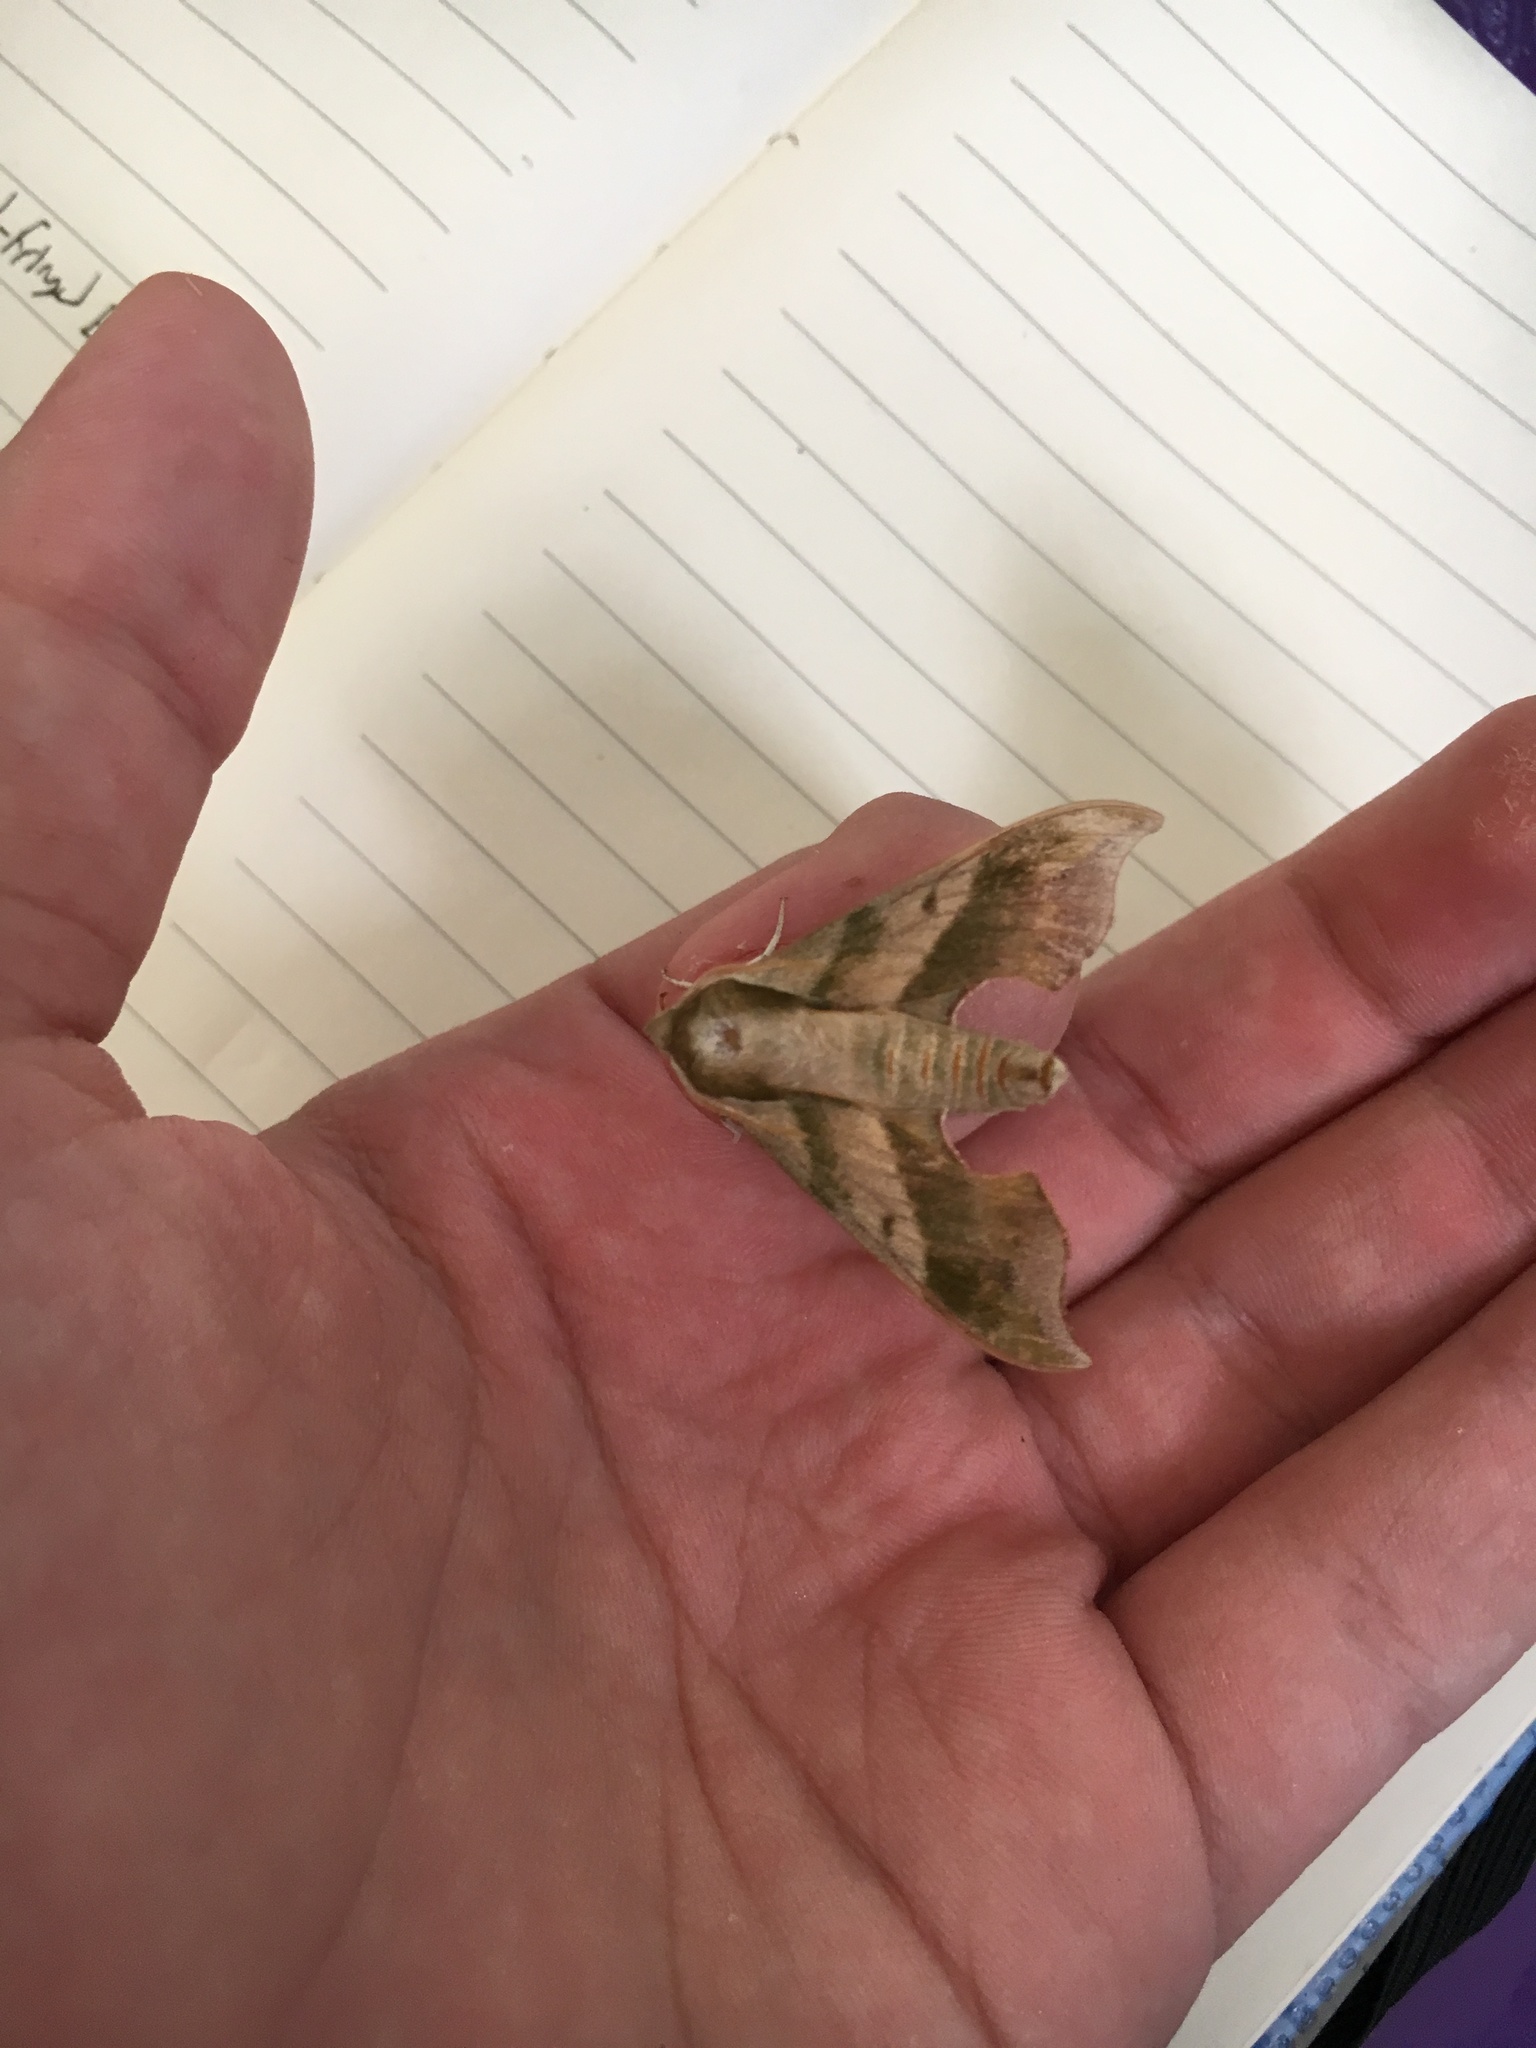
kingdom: Animalia
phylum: Arthropoda
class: Insecta
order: Lepidoptera
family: Sphingidae
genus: Darapsa
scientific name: Darapsa myron
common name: Hog sphinx
